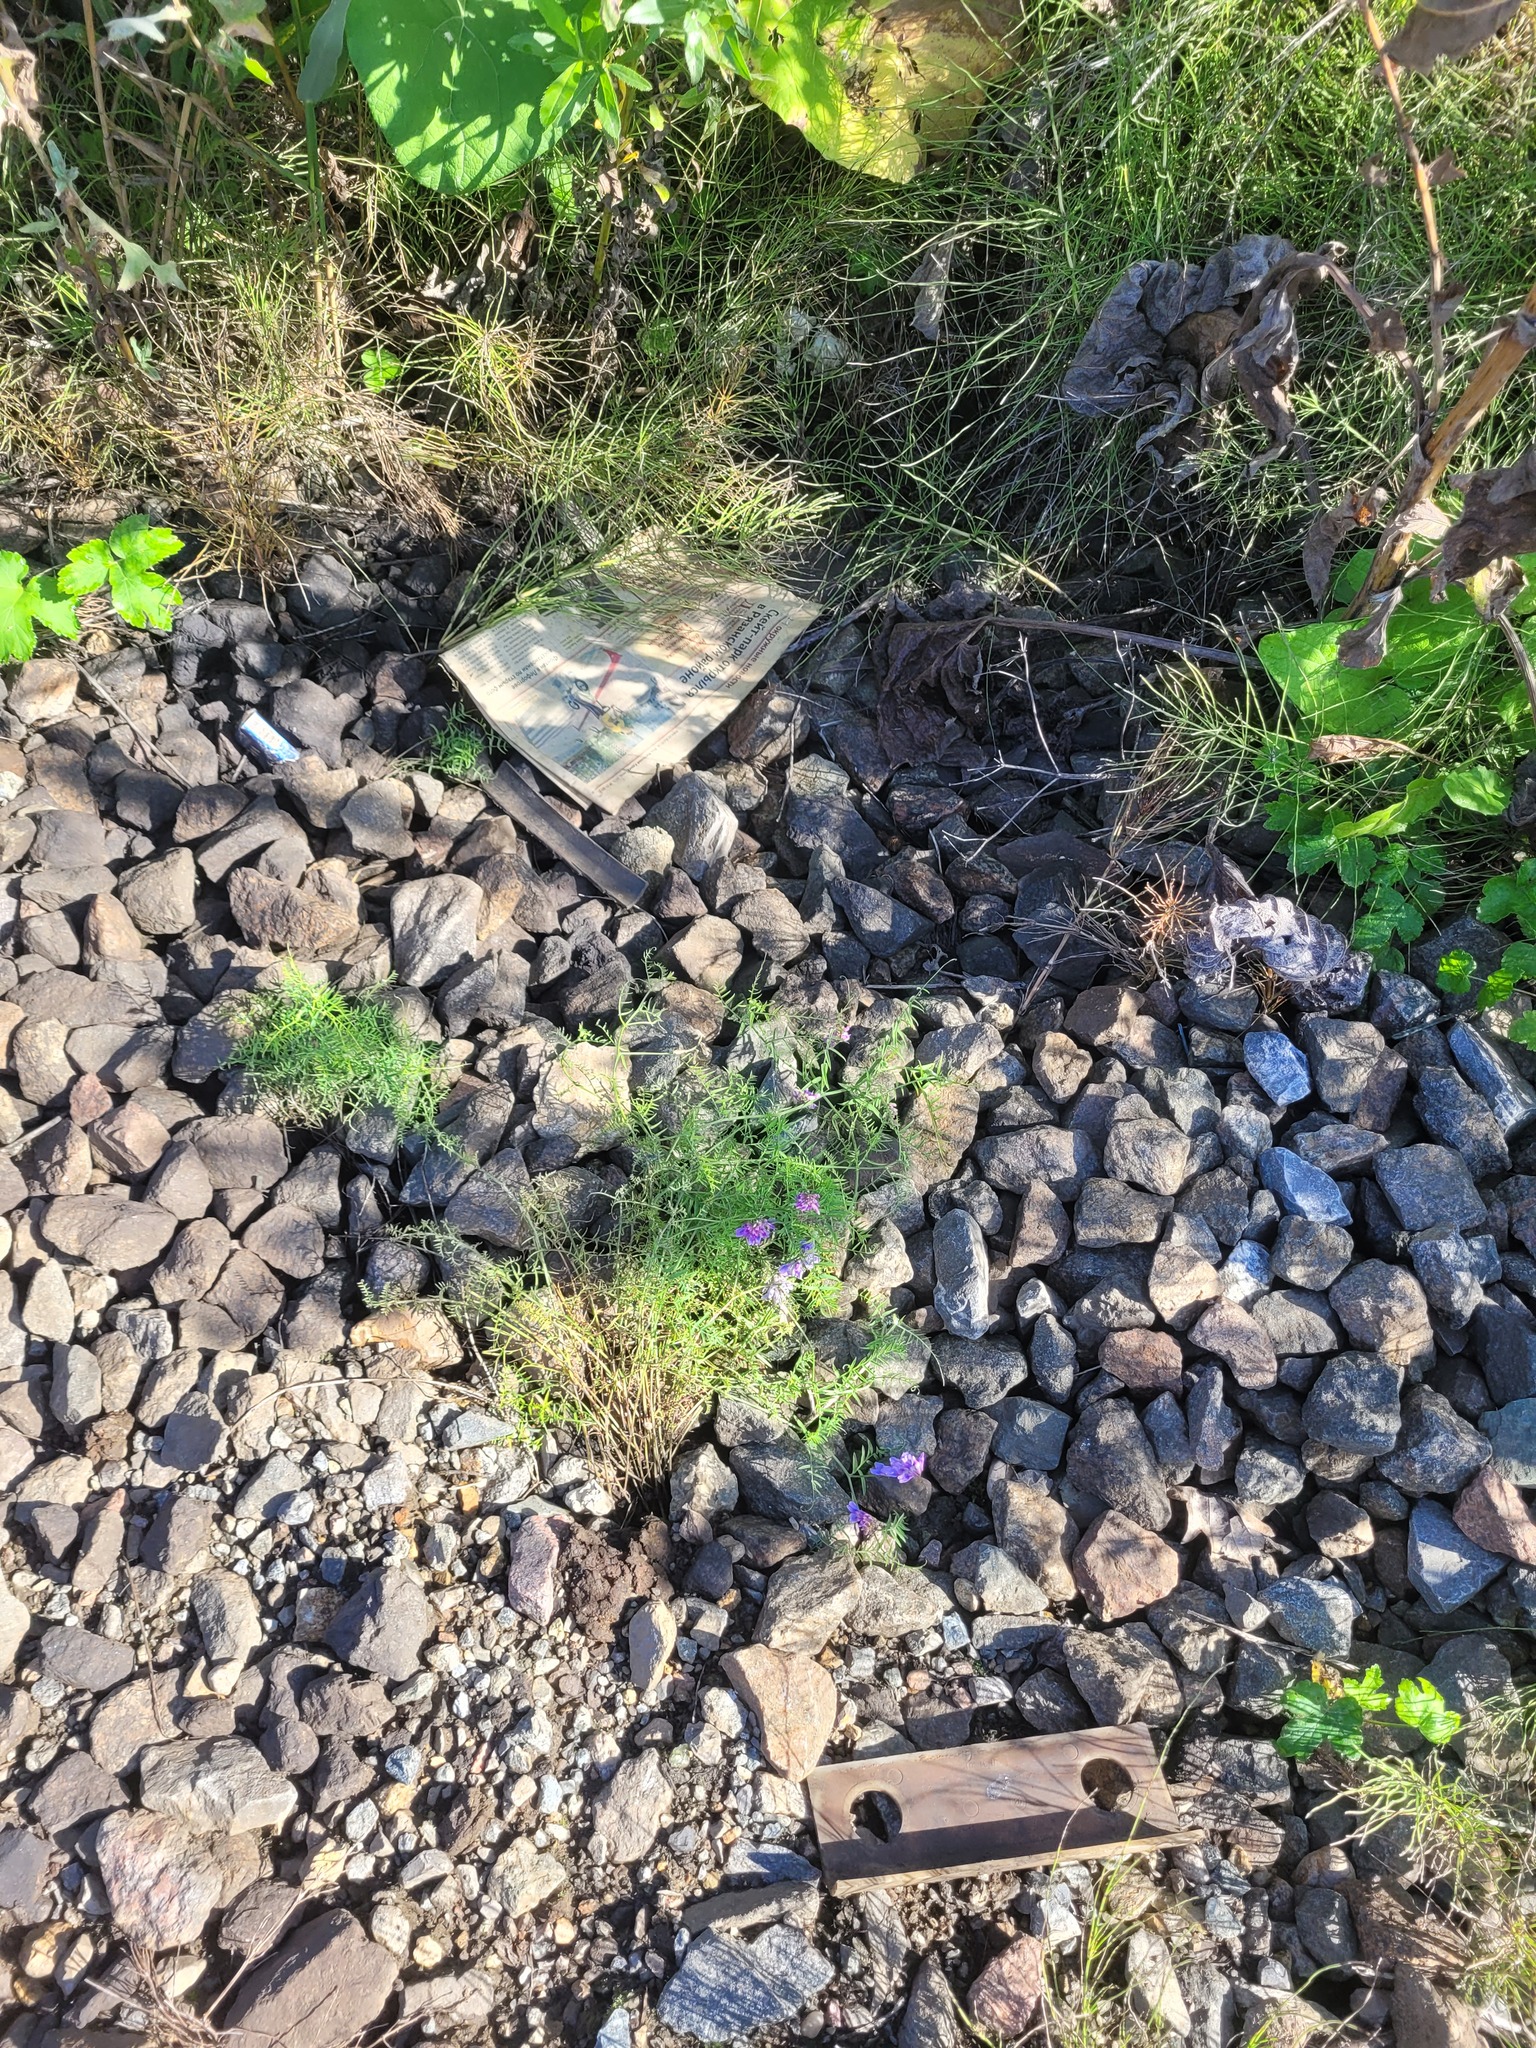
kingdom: Plantae
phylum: Tracheophyta
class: Magnoliopsida
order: Fabales
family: Fabaceae
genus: Vicia
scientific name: Vicia cracca
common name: Bird vetch
